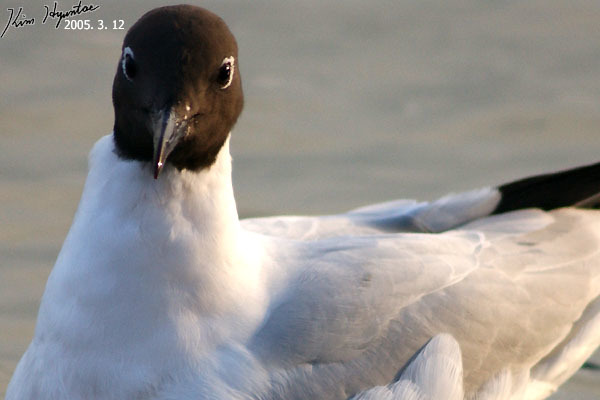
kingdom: Animalia
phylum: Chordata
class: Aves
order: Charadriiformes
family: Laridae
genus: Chroicocephalus
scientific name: Chroicocephalus ridibundus
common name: Black-headed gull
